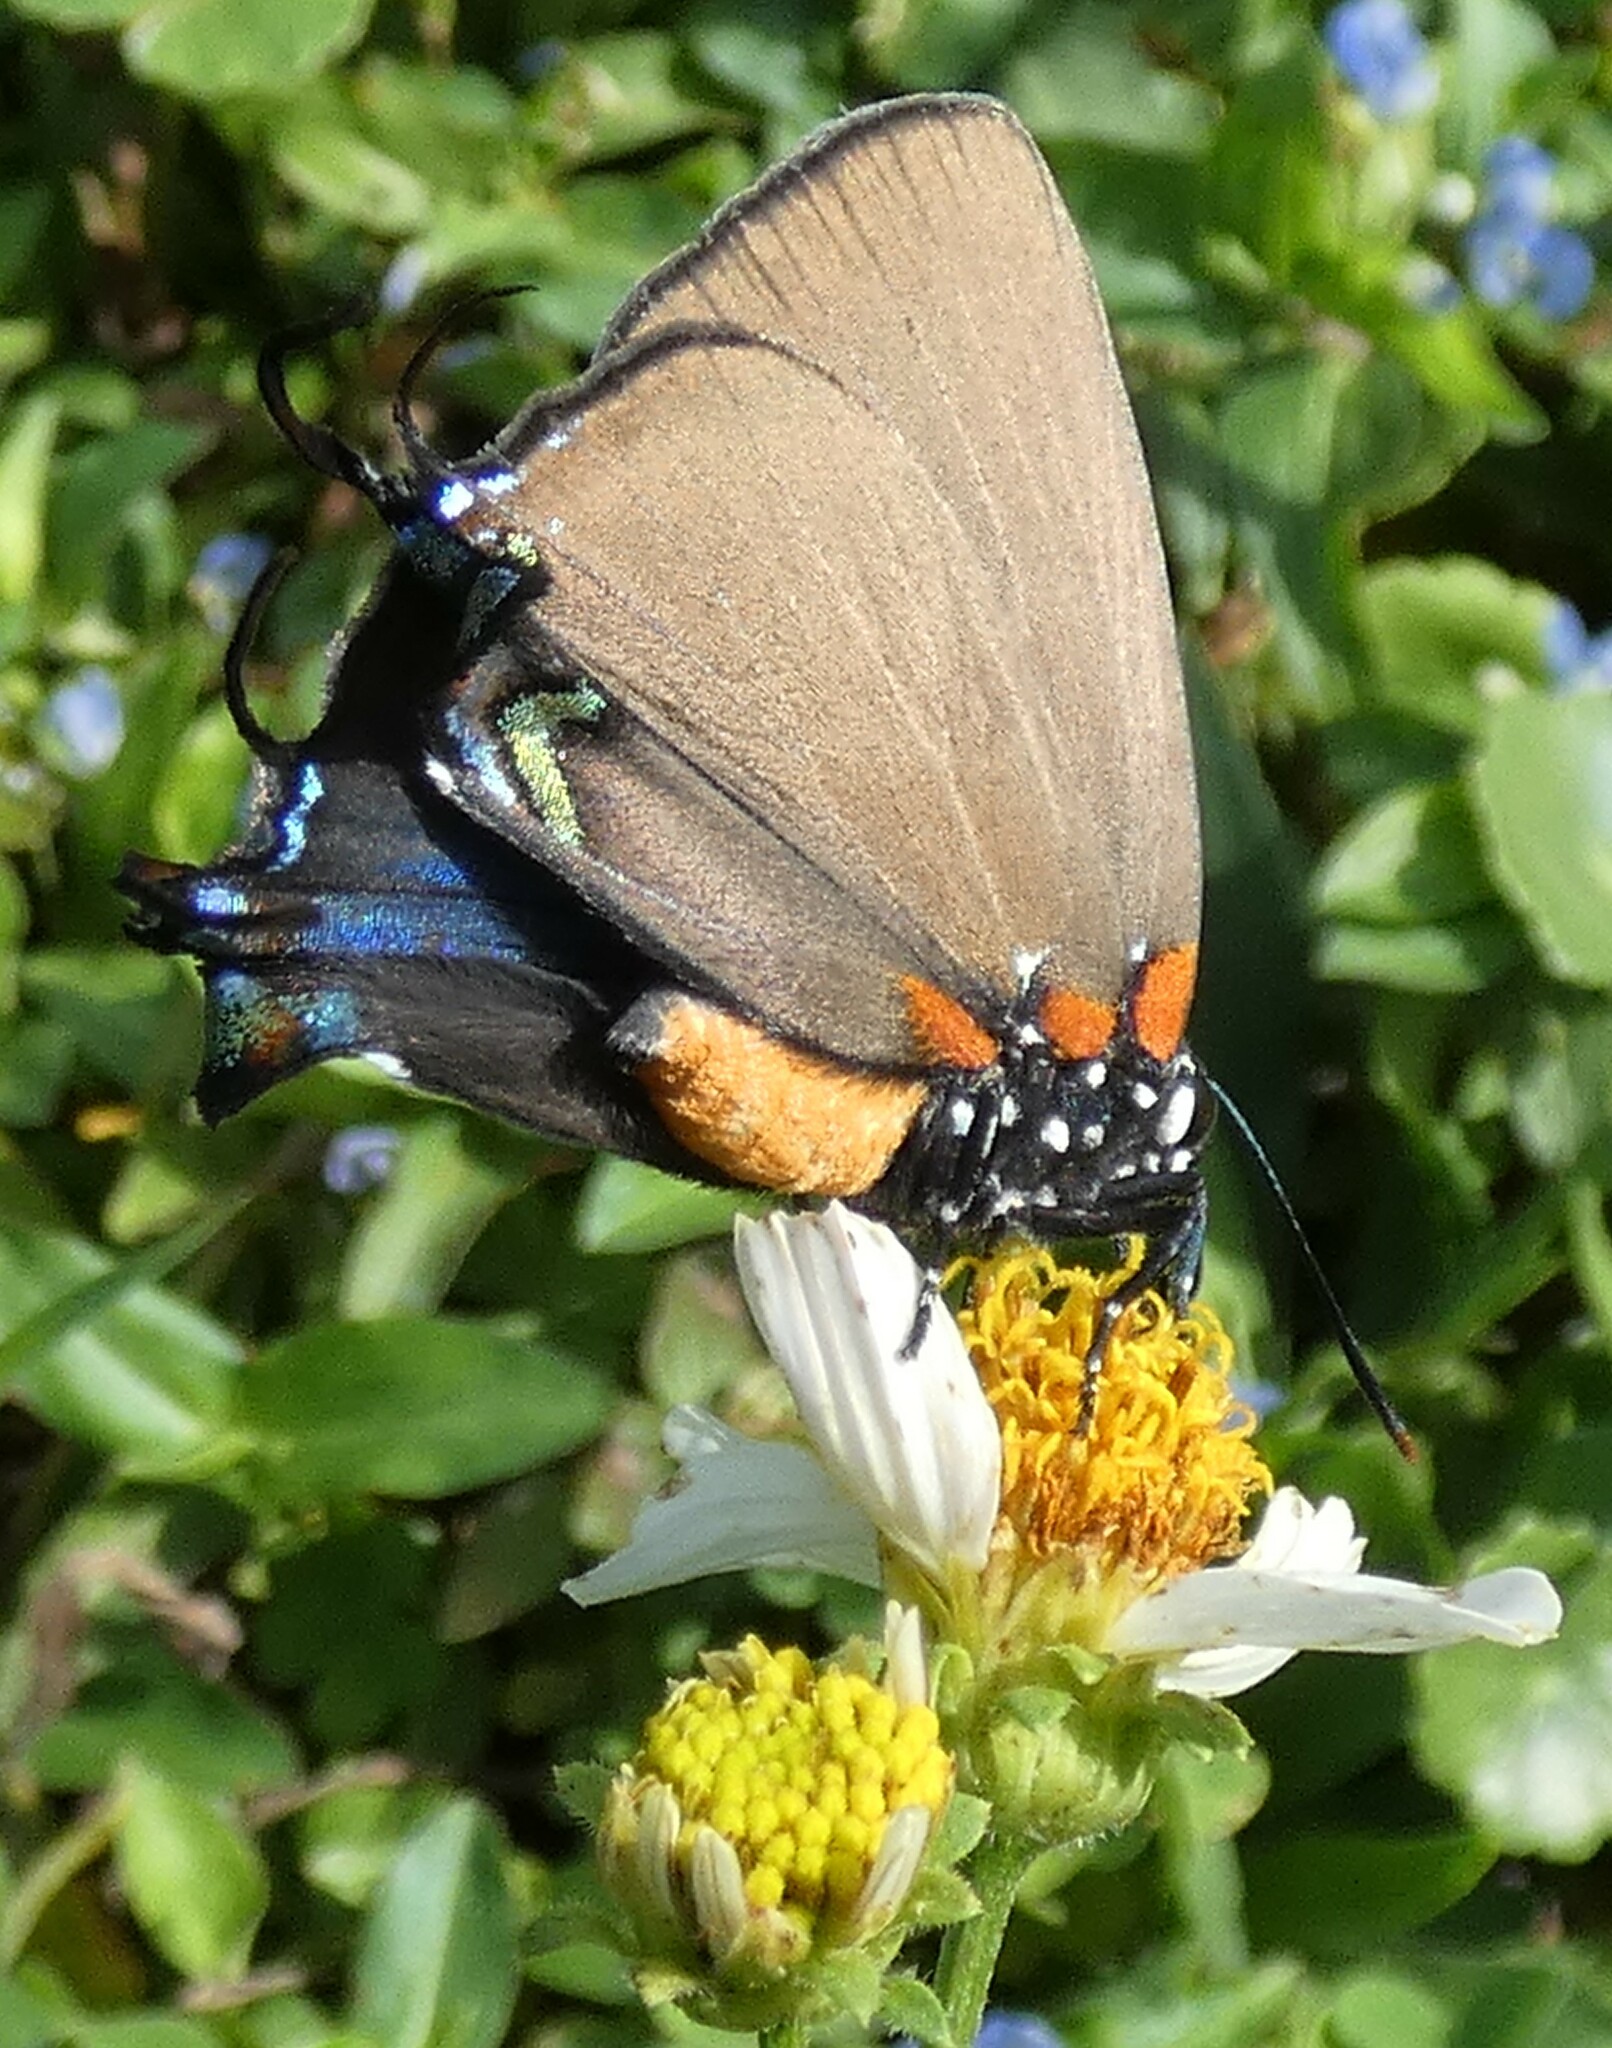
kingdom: Animalia
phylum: Arthropoda
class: Insecta
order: Lepidoptera
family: Lycaenidae
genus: Atlides
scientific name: Atlides halesus
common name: Great purple hairstreak
